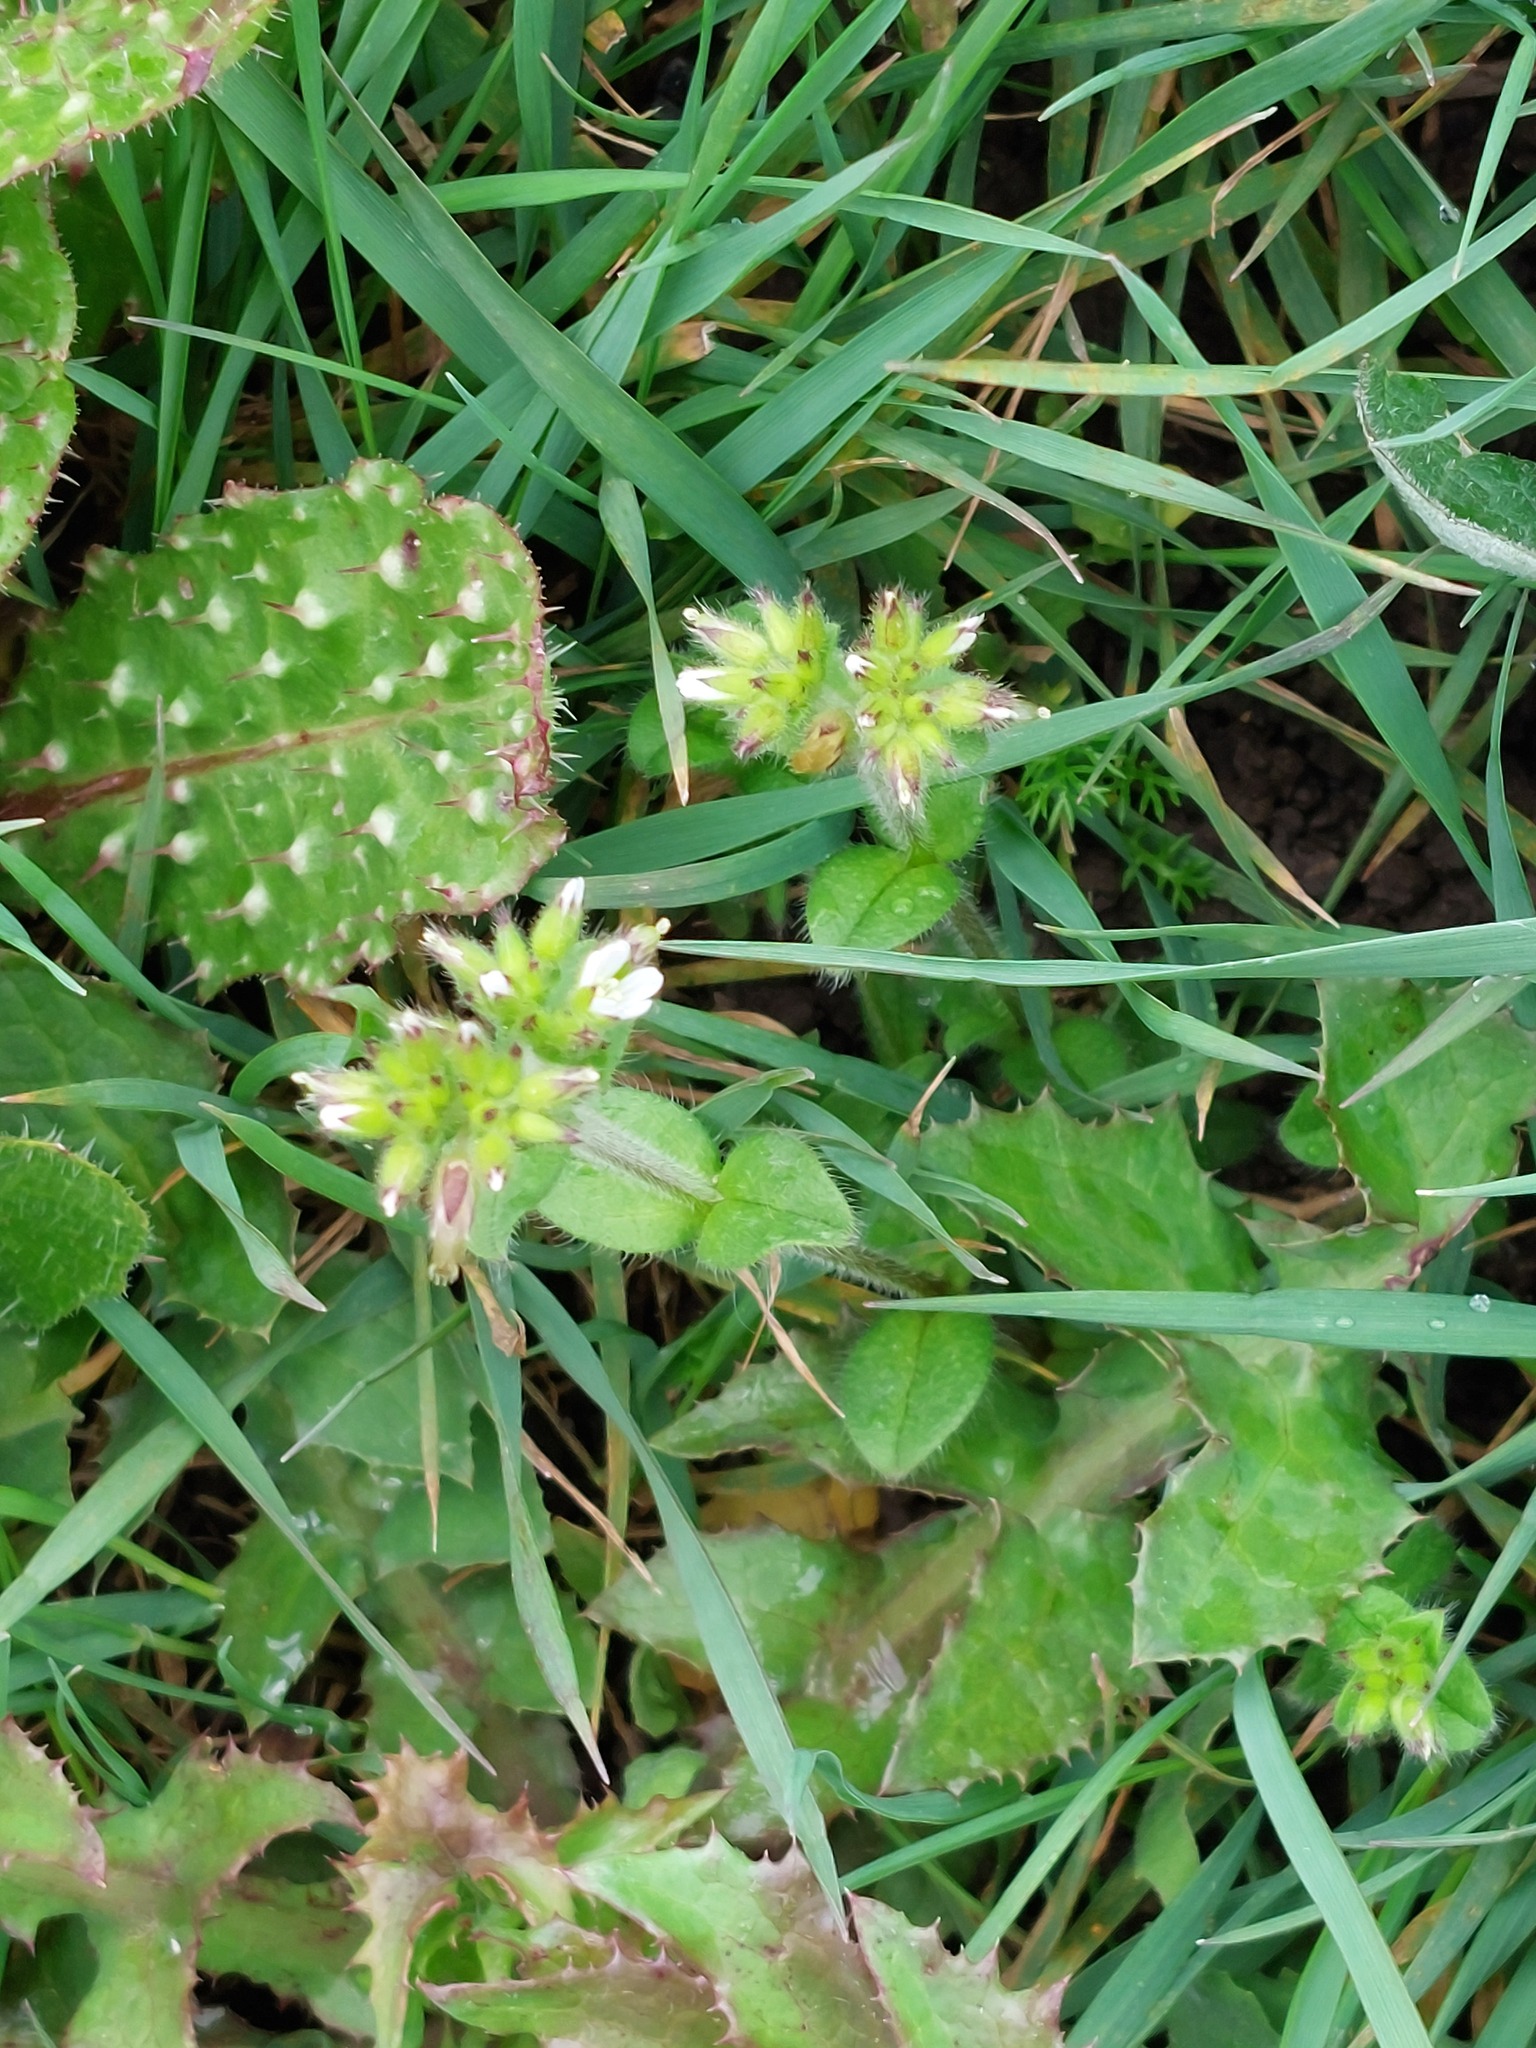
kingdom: Plantae
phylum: Tracheophyta
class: Magnoliopsida
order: Caryophyllales
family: Caryophyllaceae
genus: Cerastium
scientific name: Cerastium glomeratum
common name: Sticky chickweed
